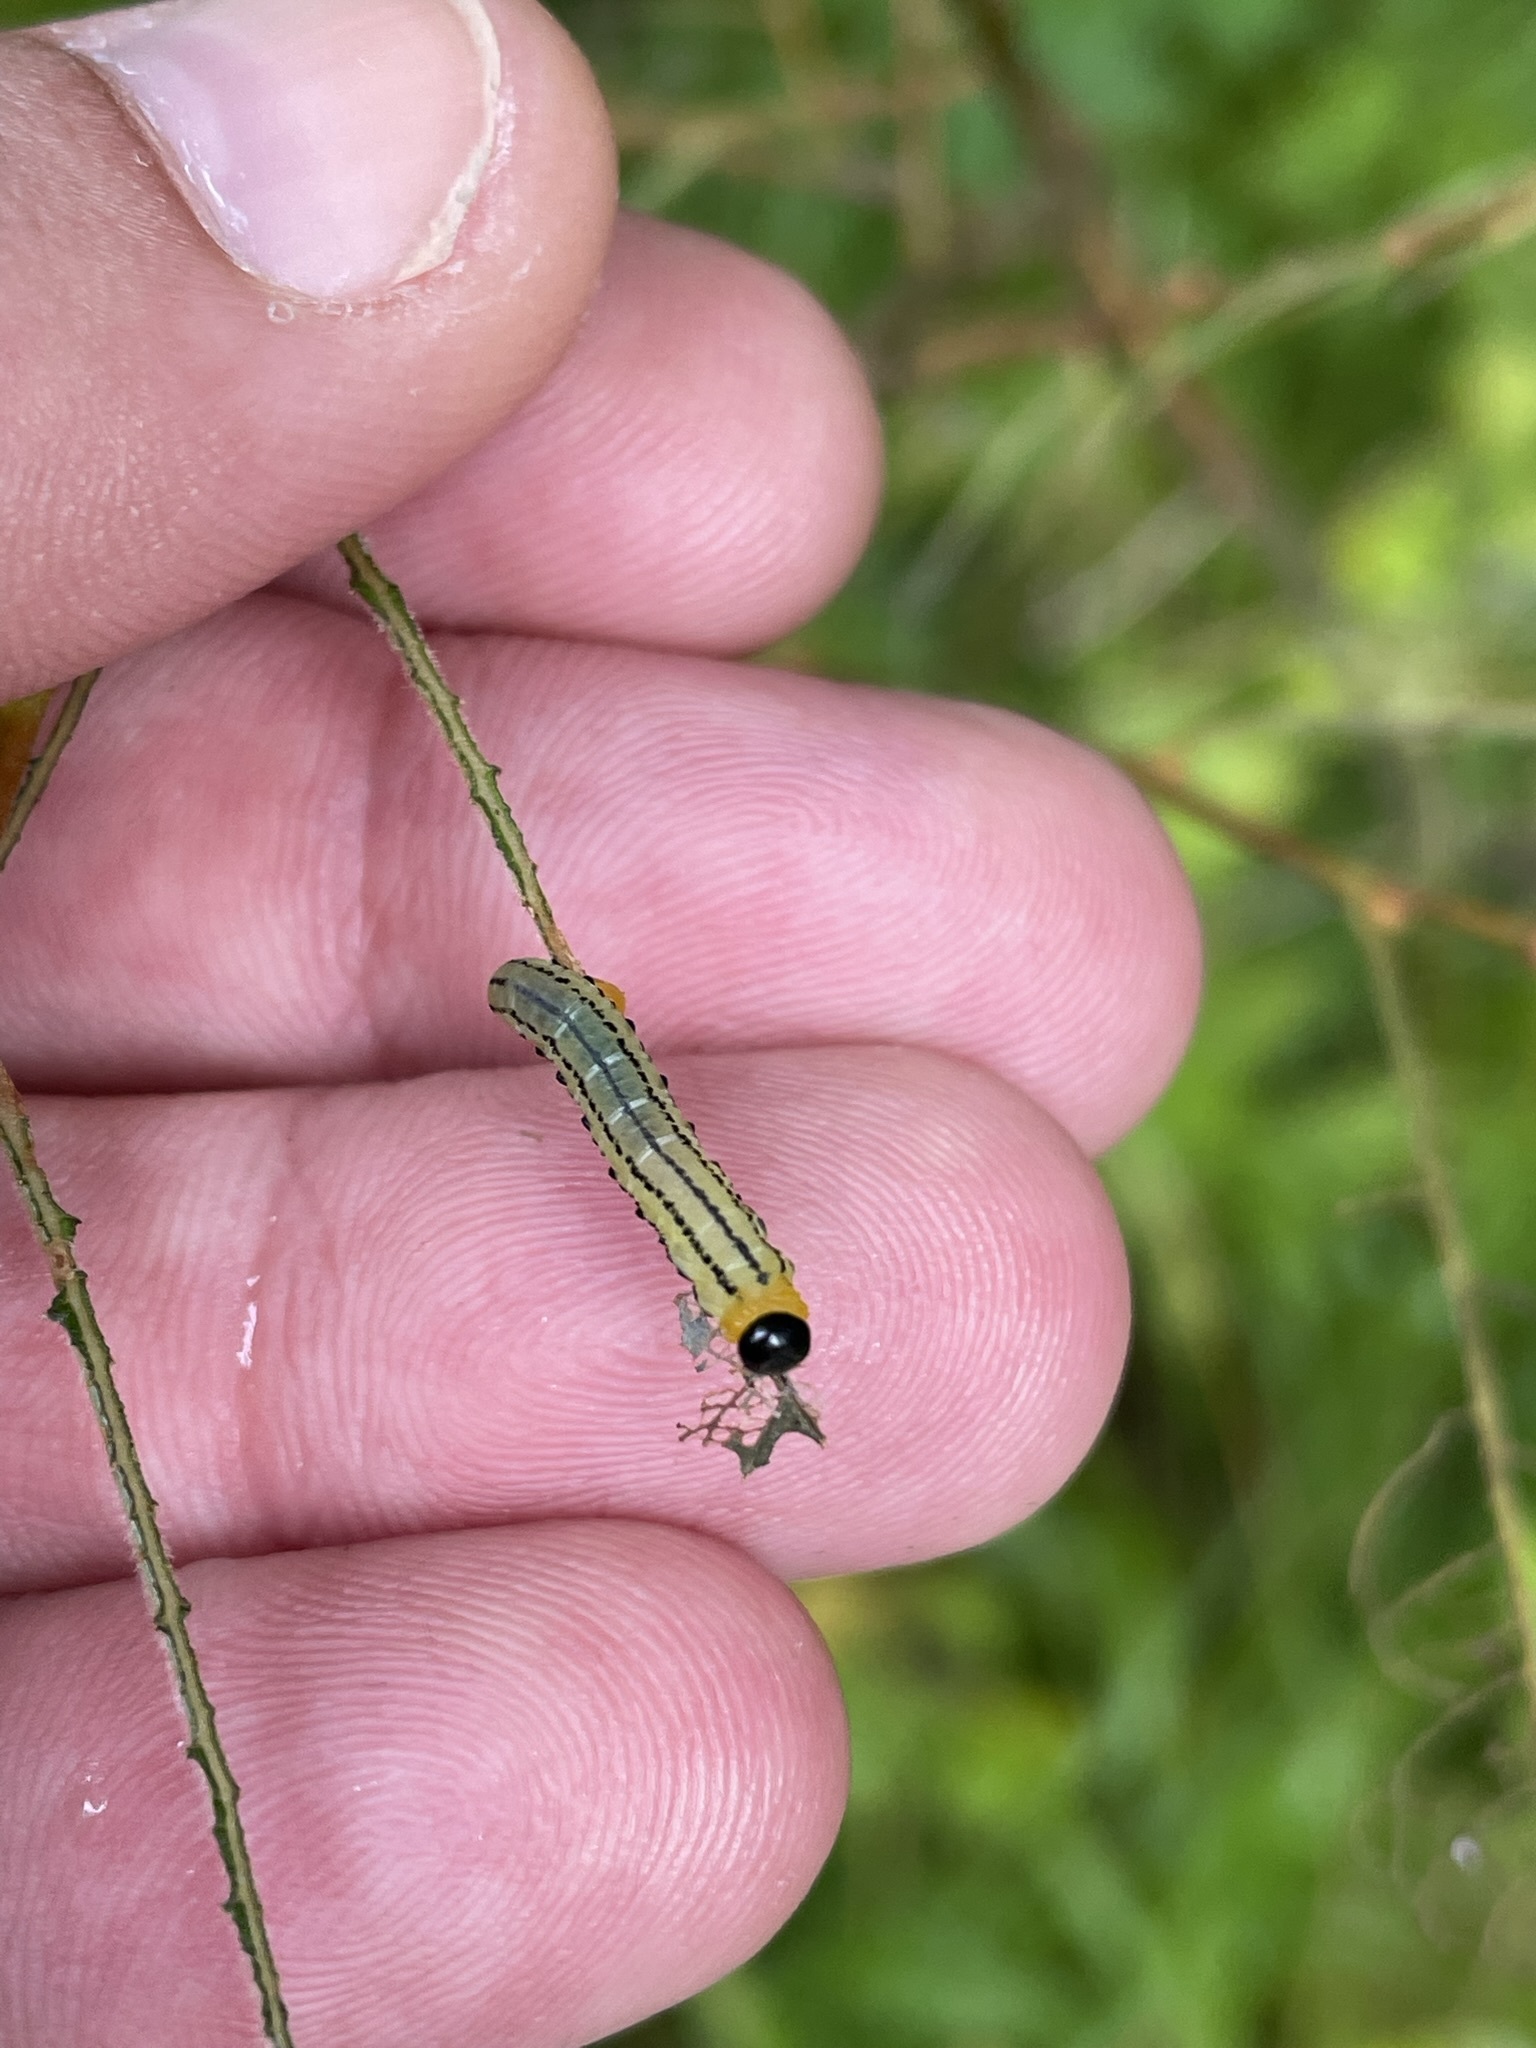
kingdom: Animalia
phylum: Arthropoda
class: Insecta
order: Hymenoptera
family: Tenthredinidae
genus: Nematus
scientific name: Nematus pavidus
